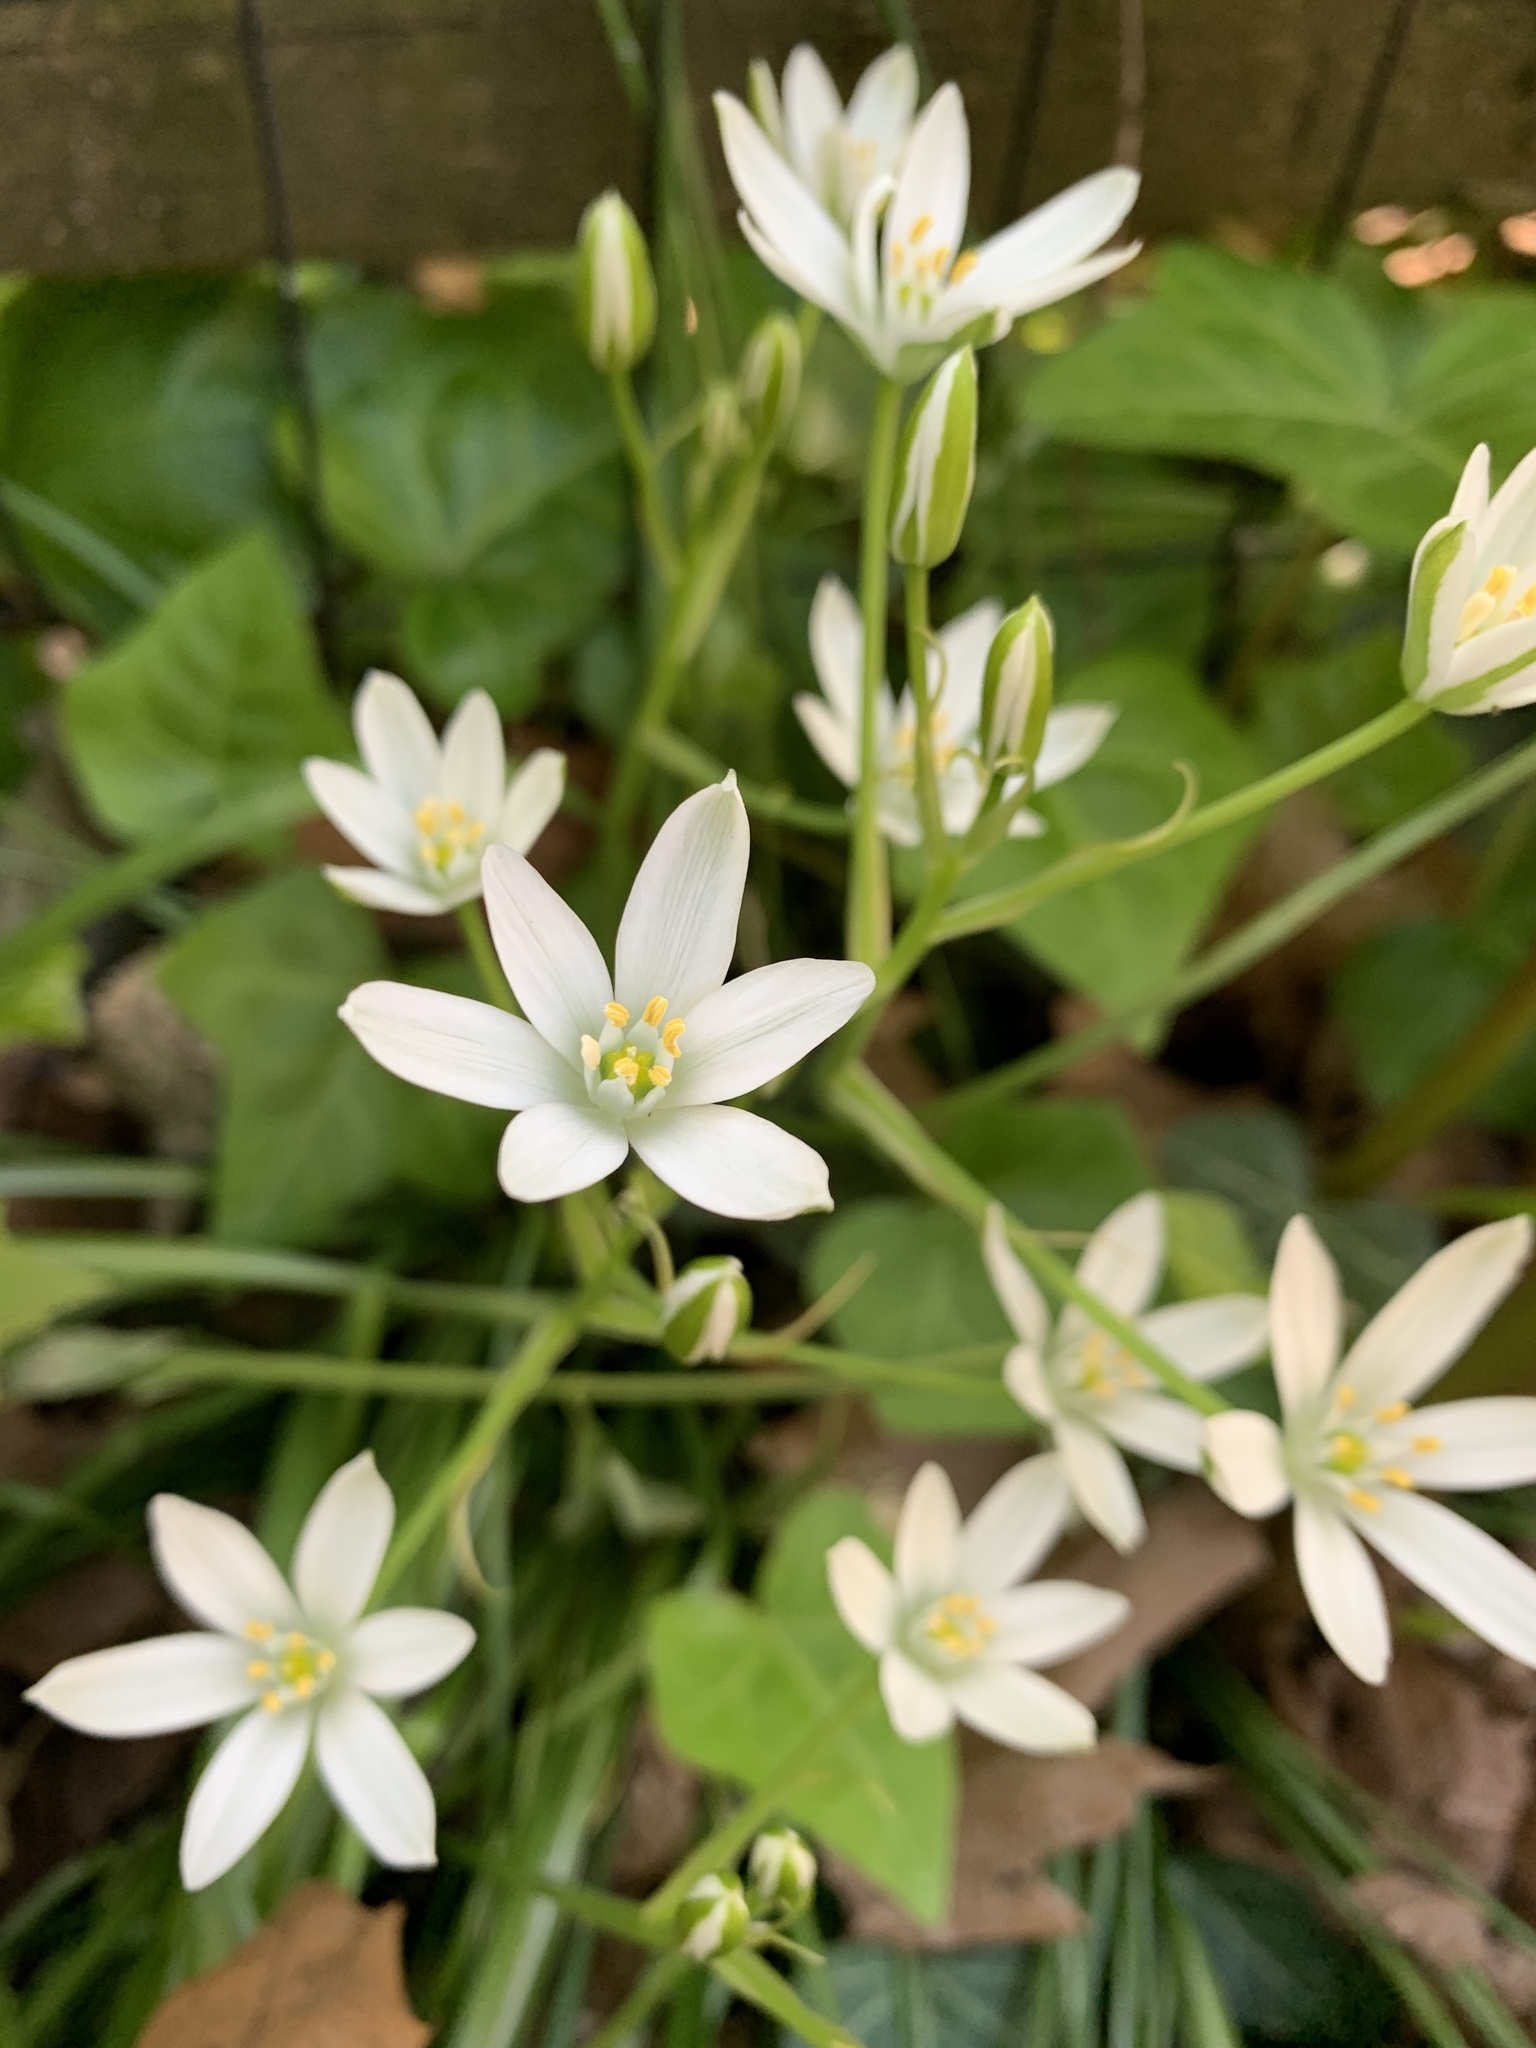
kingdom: Plantae
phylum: Tracheophyta
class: Liliopsida
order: Asparagales
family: Asparagaceae
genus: Ornithogalum
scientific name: Ornithogalum umbellatum
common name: Garden star-of-bethlehem
